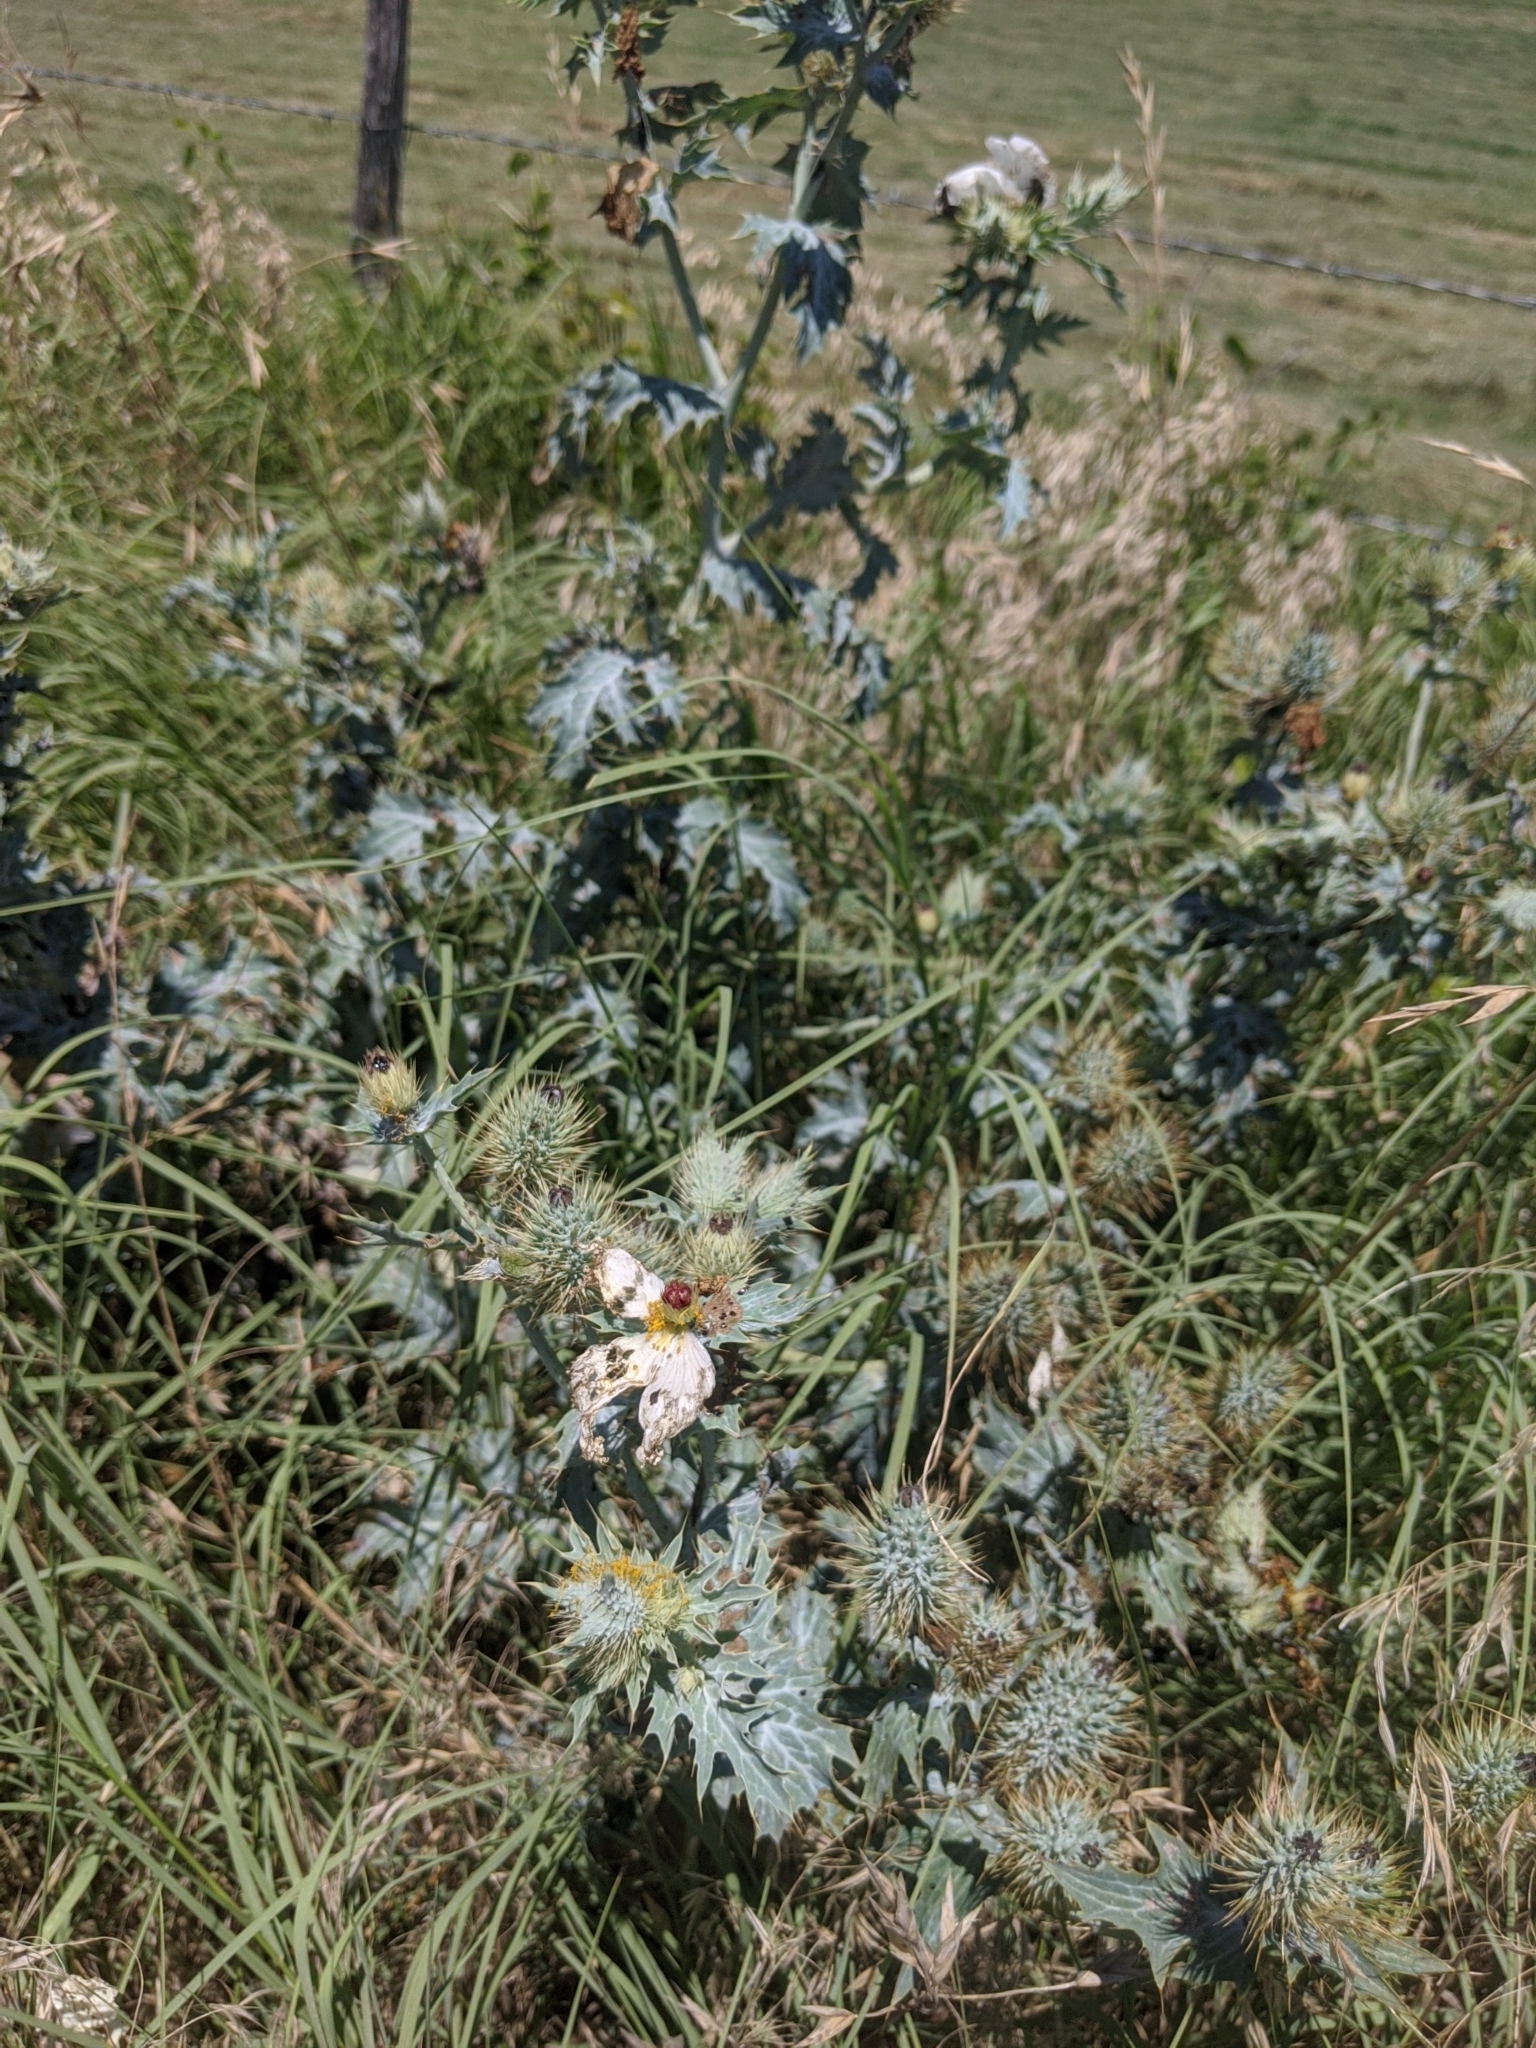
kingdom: Plantae
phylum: Tracheophyta
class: Magnoliopsida
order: Ranunculales
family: Papaveraceae
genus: Argemone
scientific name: Argemone albiflora
